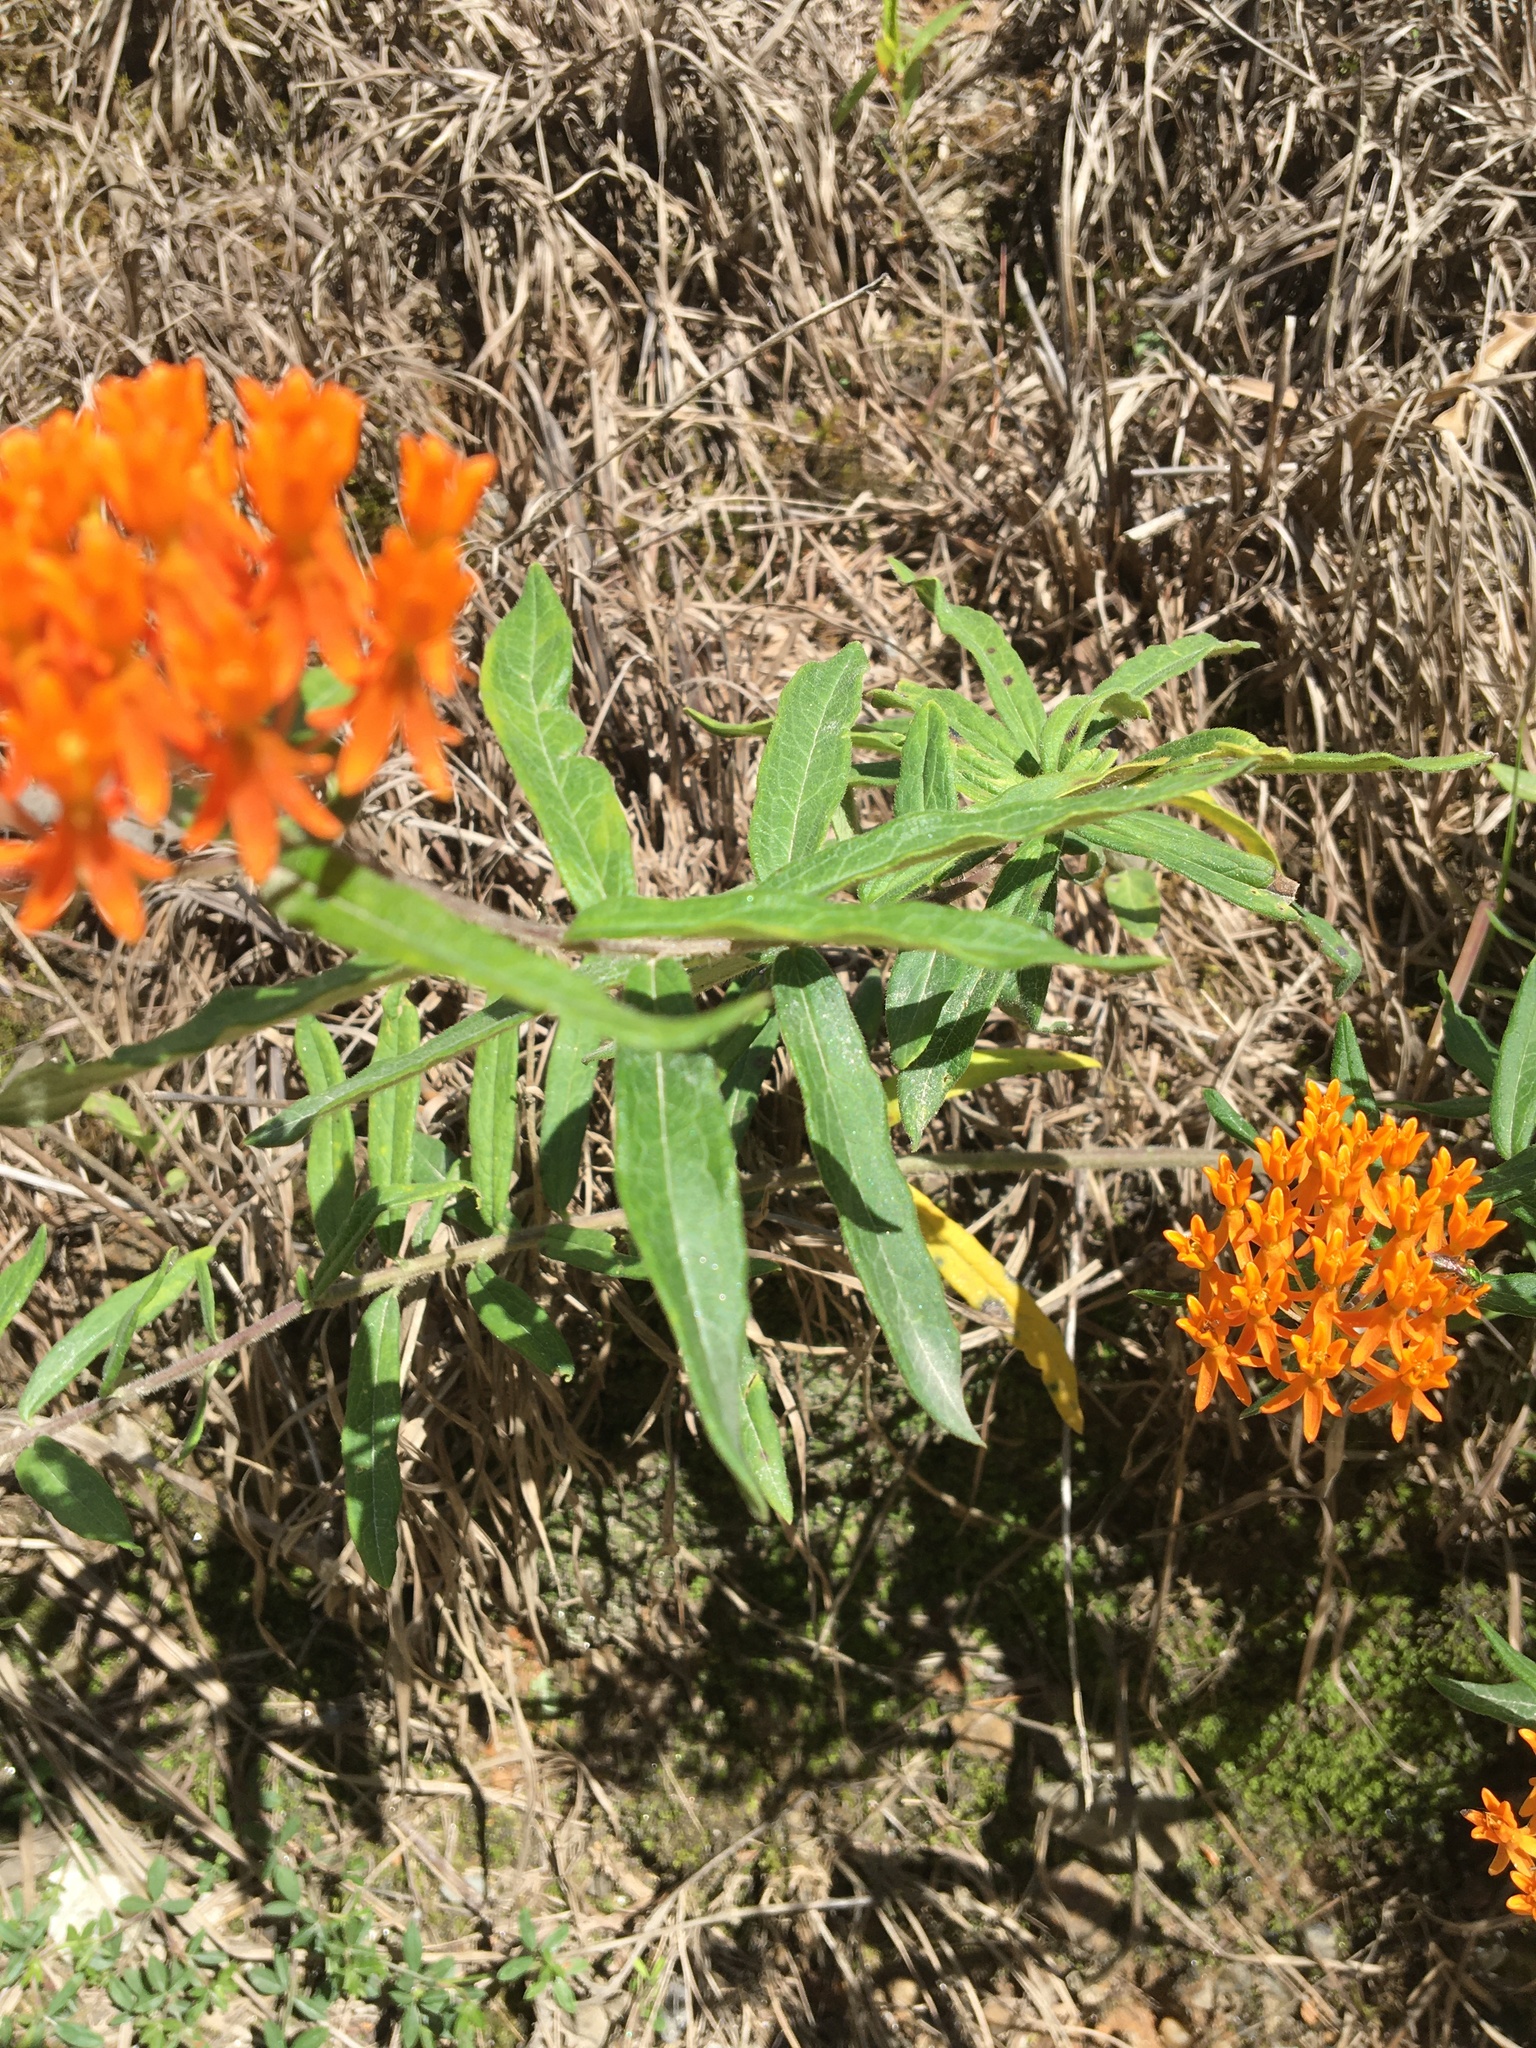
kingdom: Plantae
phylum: Tracheophyta
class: Magnoliopsida
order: Gentianales
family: Apocynaceae
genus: Asclepias
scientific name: Asclepias tuberosa
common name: Butterfly milkweed
